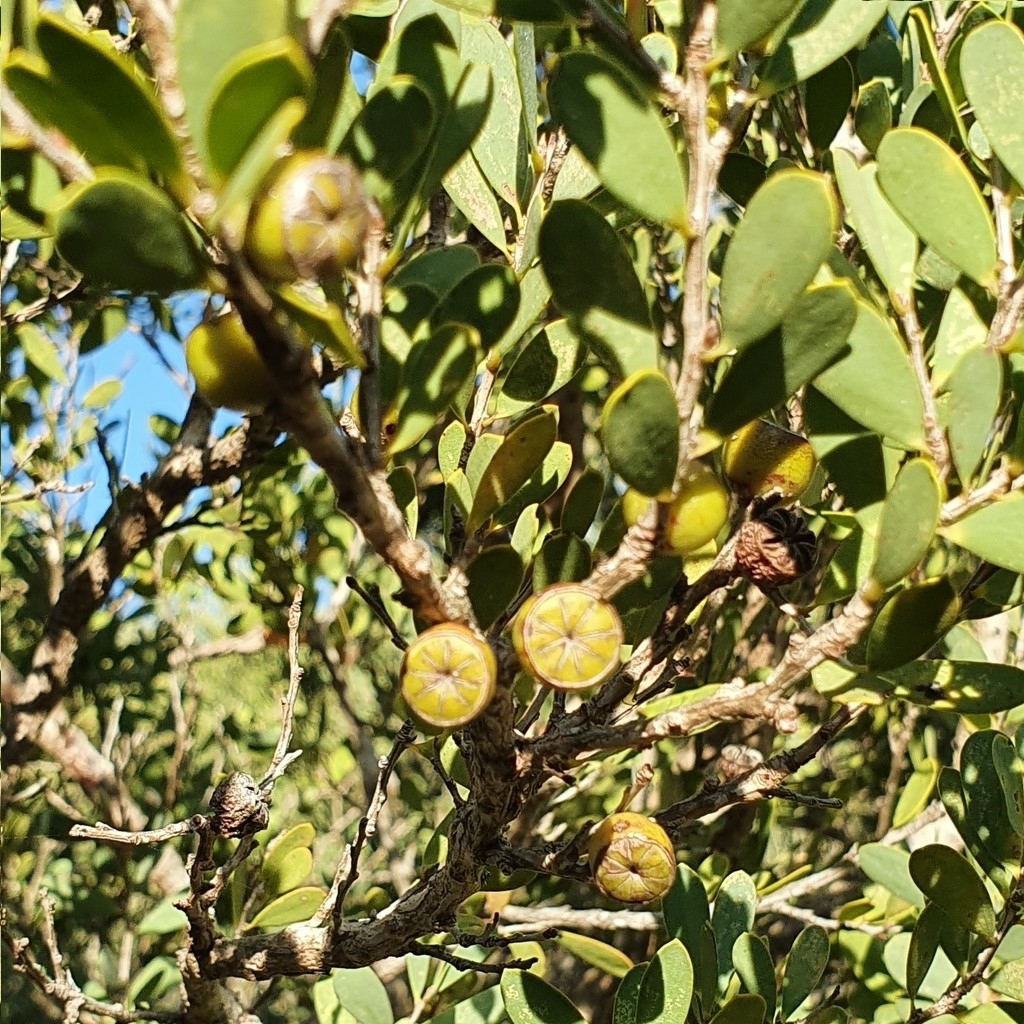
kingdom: Plantae
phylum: Tracheophyta
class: Magnoliopsida
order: Myrtales
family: Myrtaceae
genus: Leptospermum
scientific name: Leptospermum laevigatum
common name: Australian teatree
